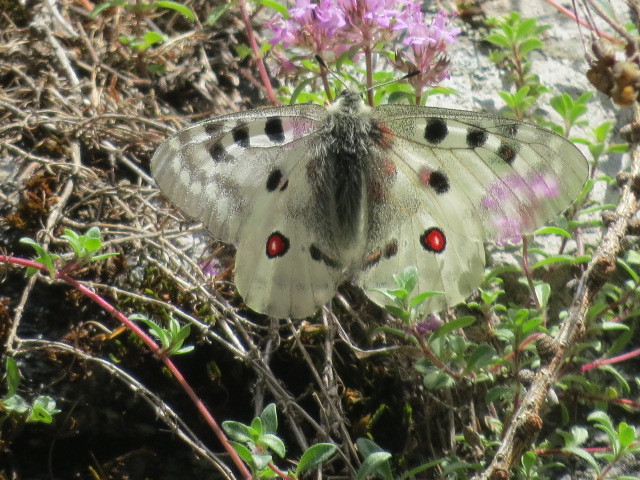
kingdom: Animalia
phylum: Arthropoda
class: Insecta
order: Lepidoptera
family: Papilionidae
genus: Parnassius
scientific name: Parnassius apollo
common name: Apollo
